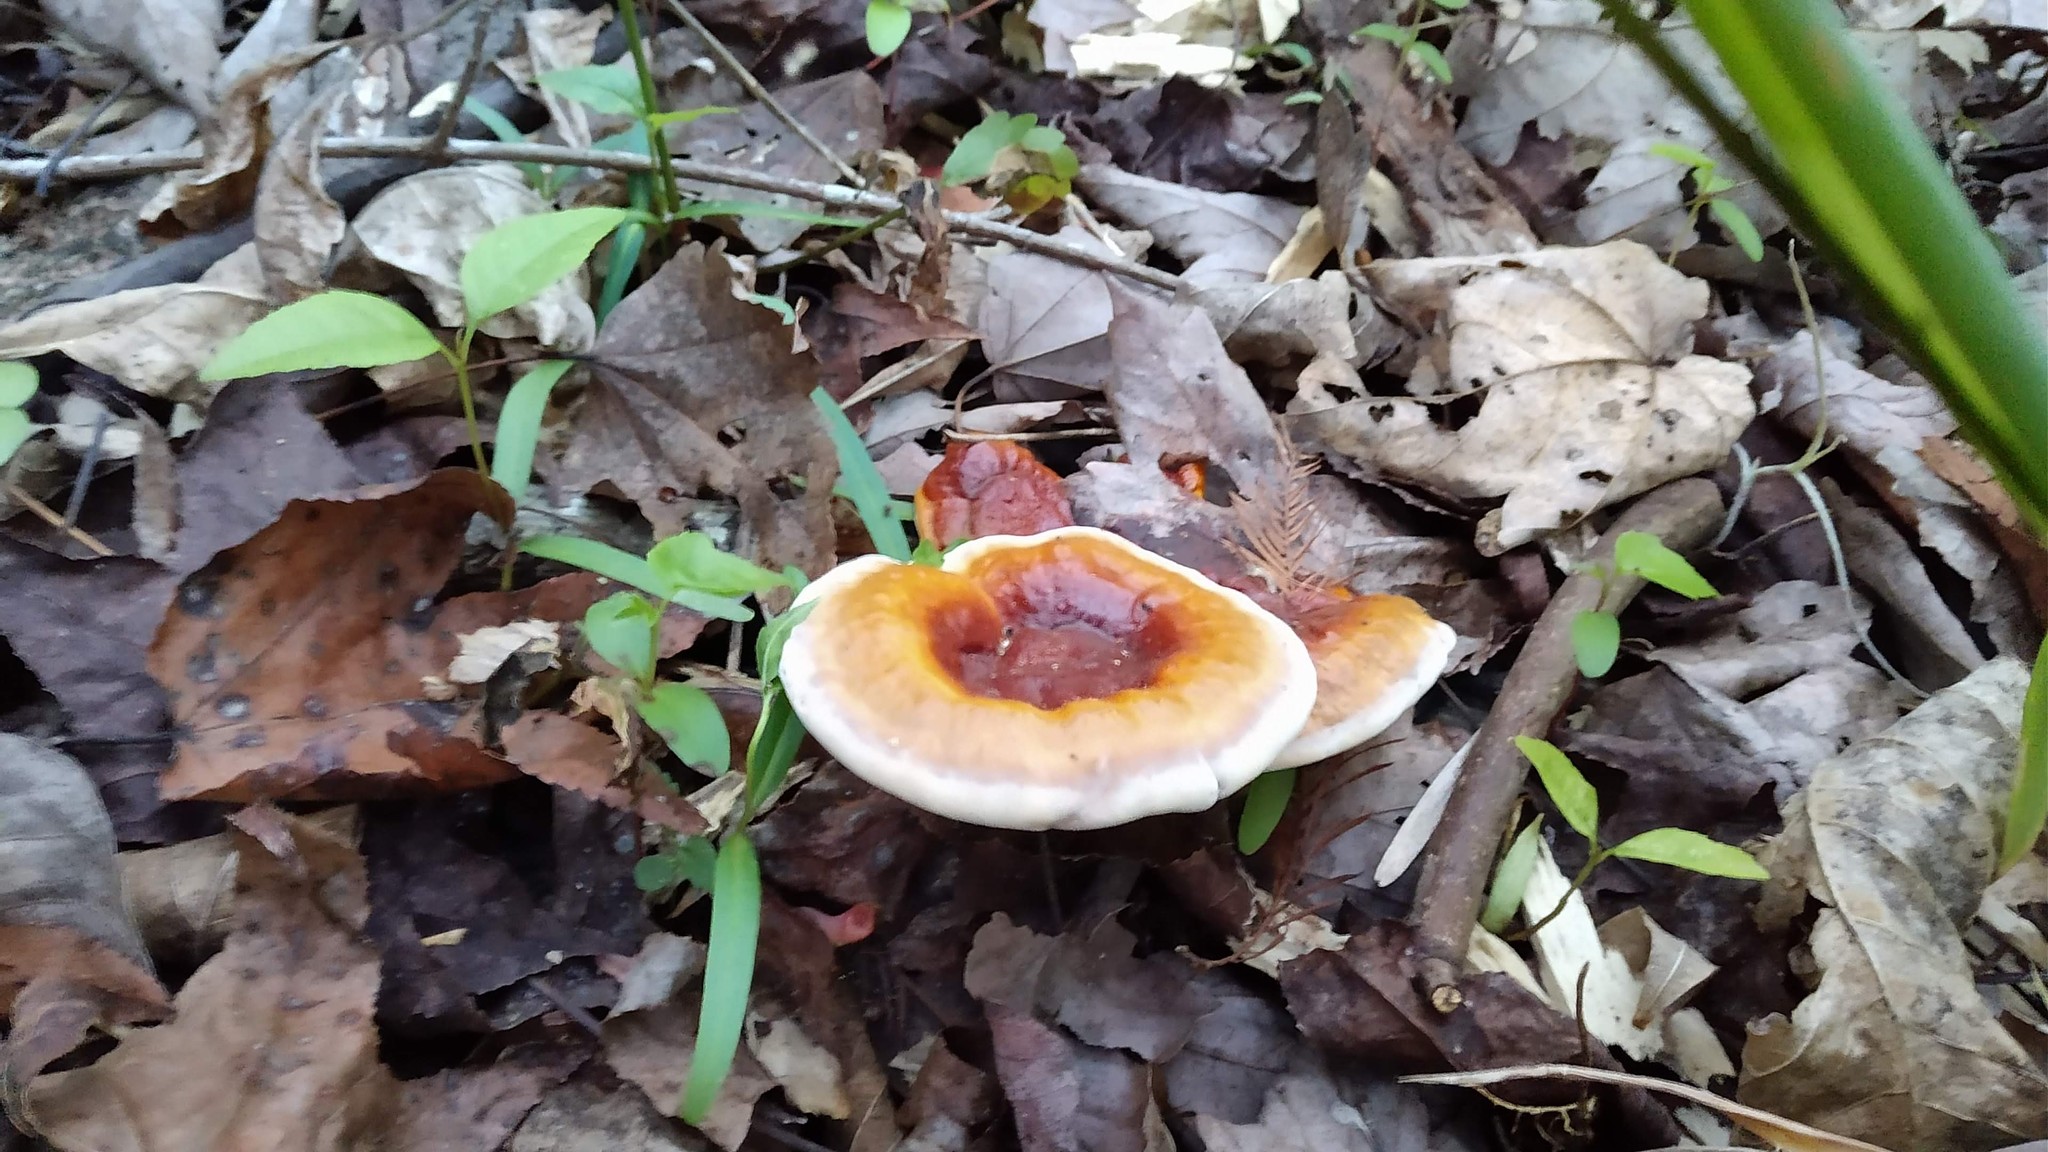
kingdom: Fungi
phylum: Basidiomycota
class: Agaricomycetes
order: Polyporales
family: Polyporaceae
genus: Ganoderma
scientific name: Ganoderma curtisii
